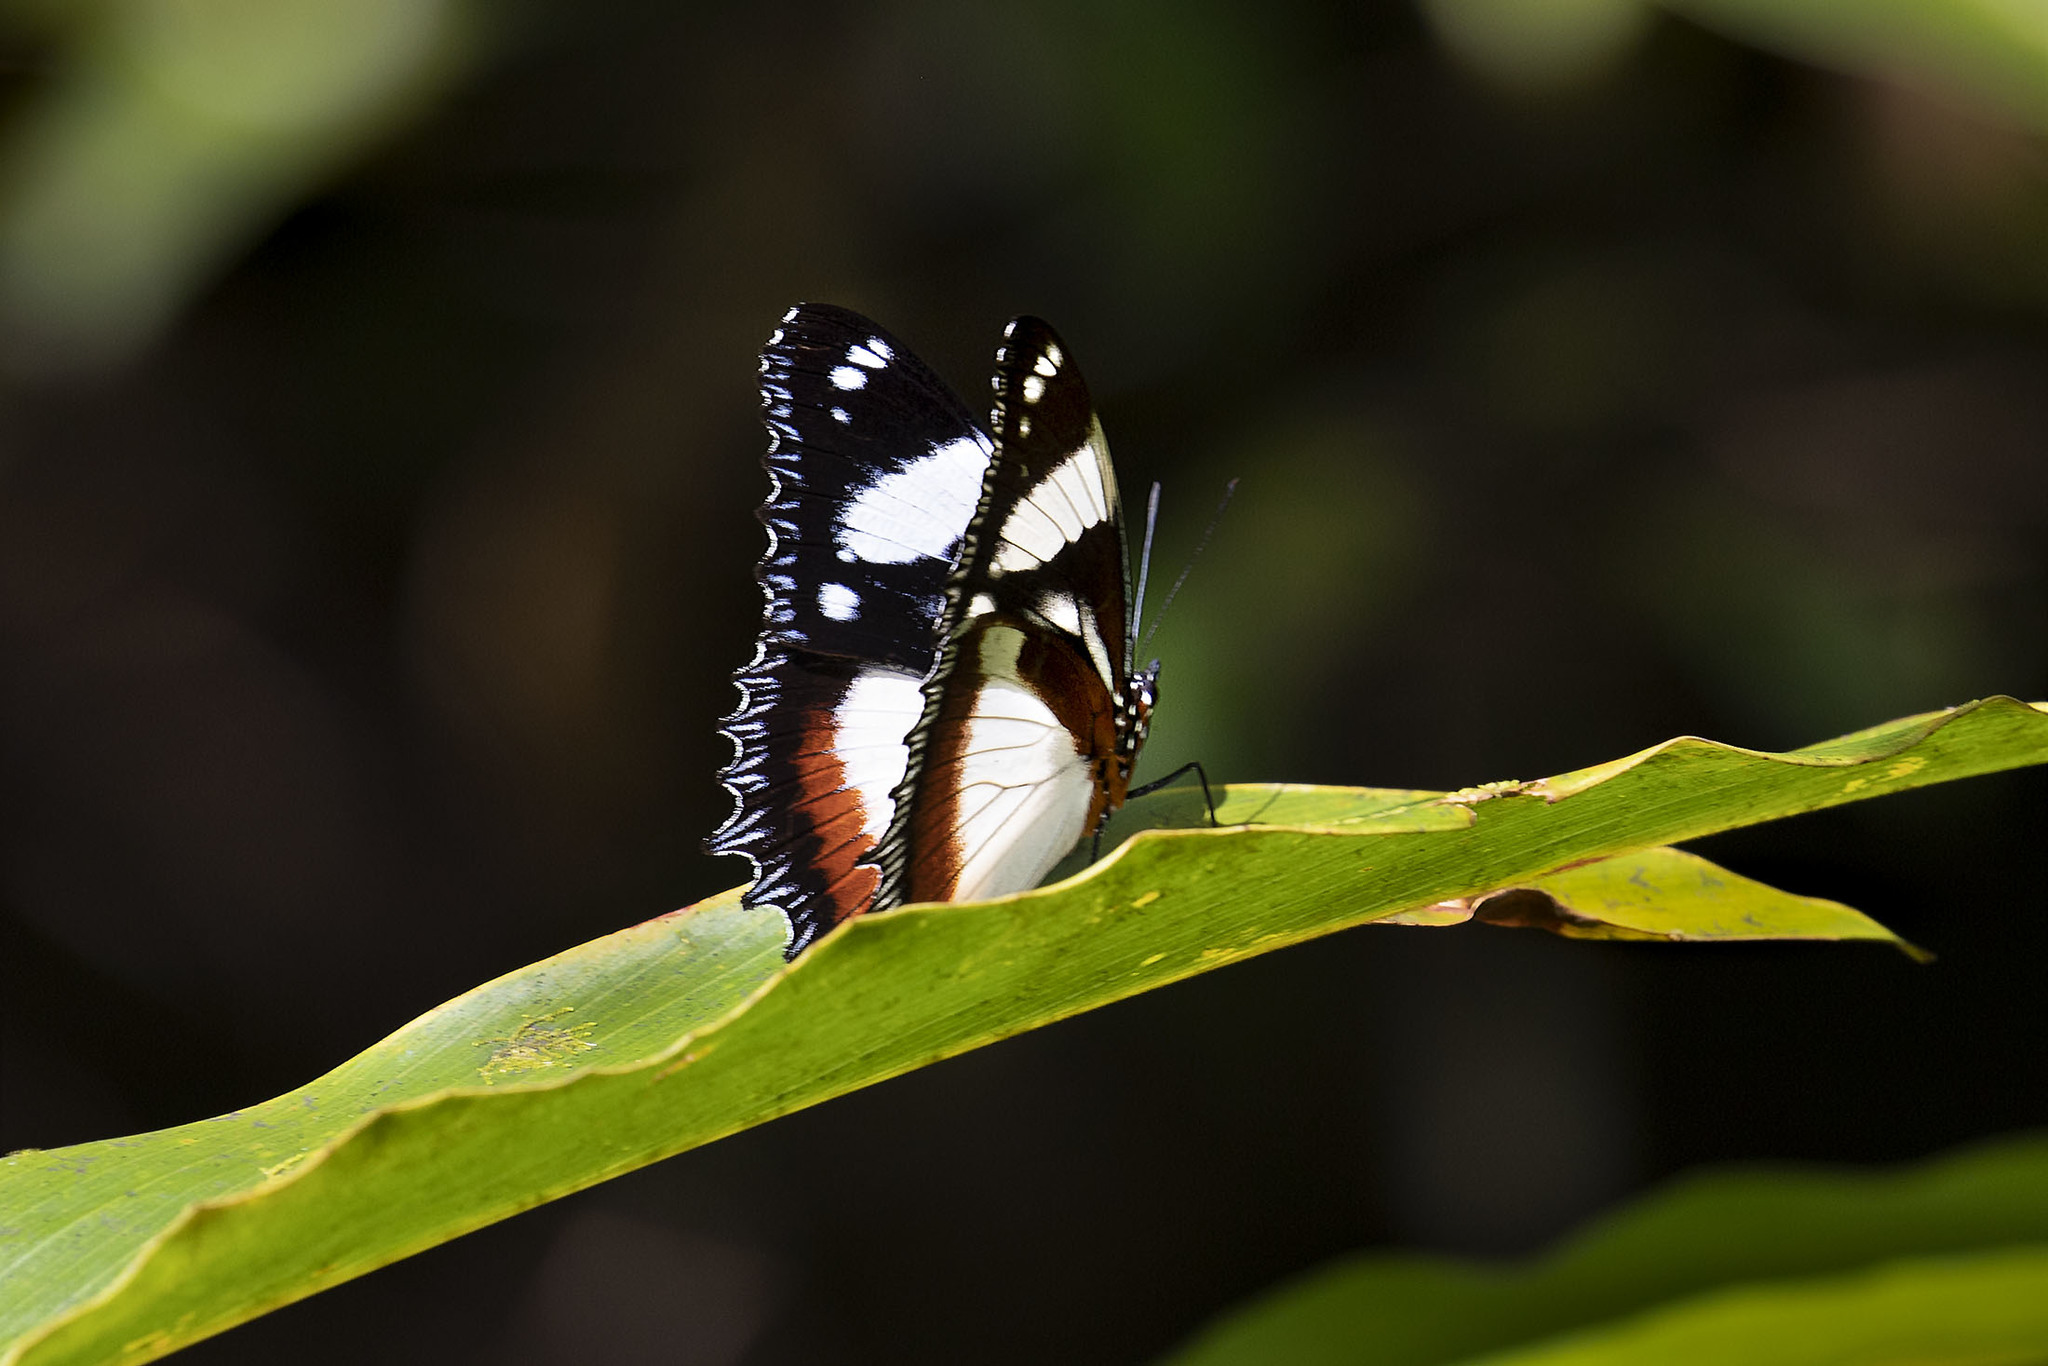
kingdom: Animalia
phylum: Arthropoda
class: Insecta
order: Lepidoptera
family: Nymphalidae
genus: Hypolimnas
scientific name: Hypolimnas dexithea
